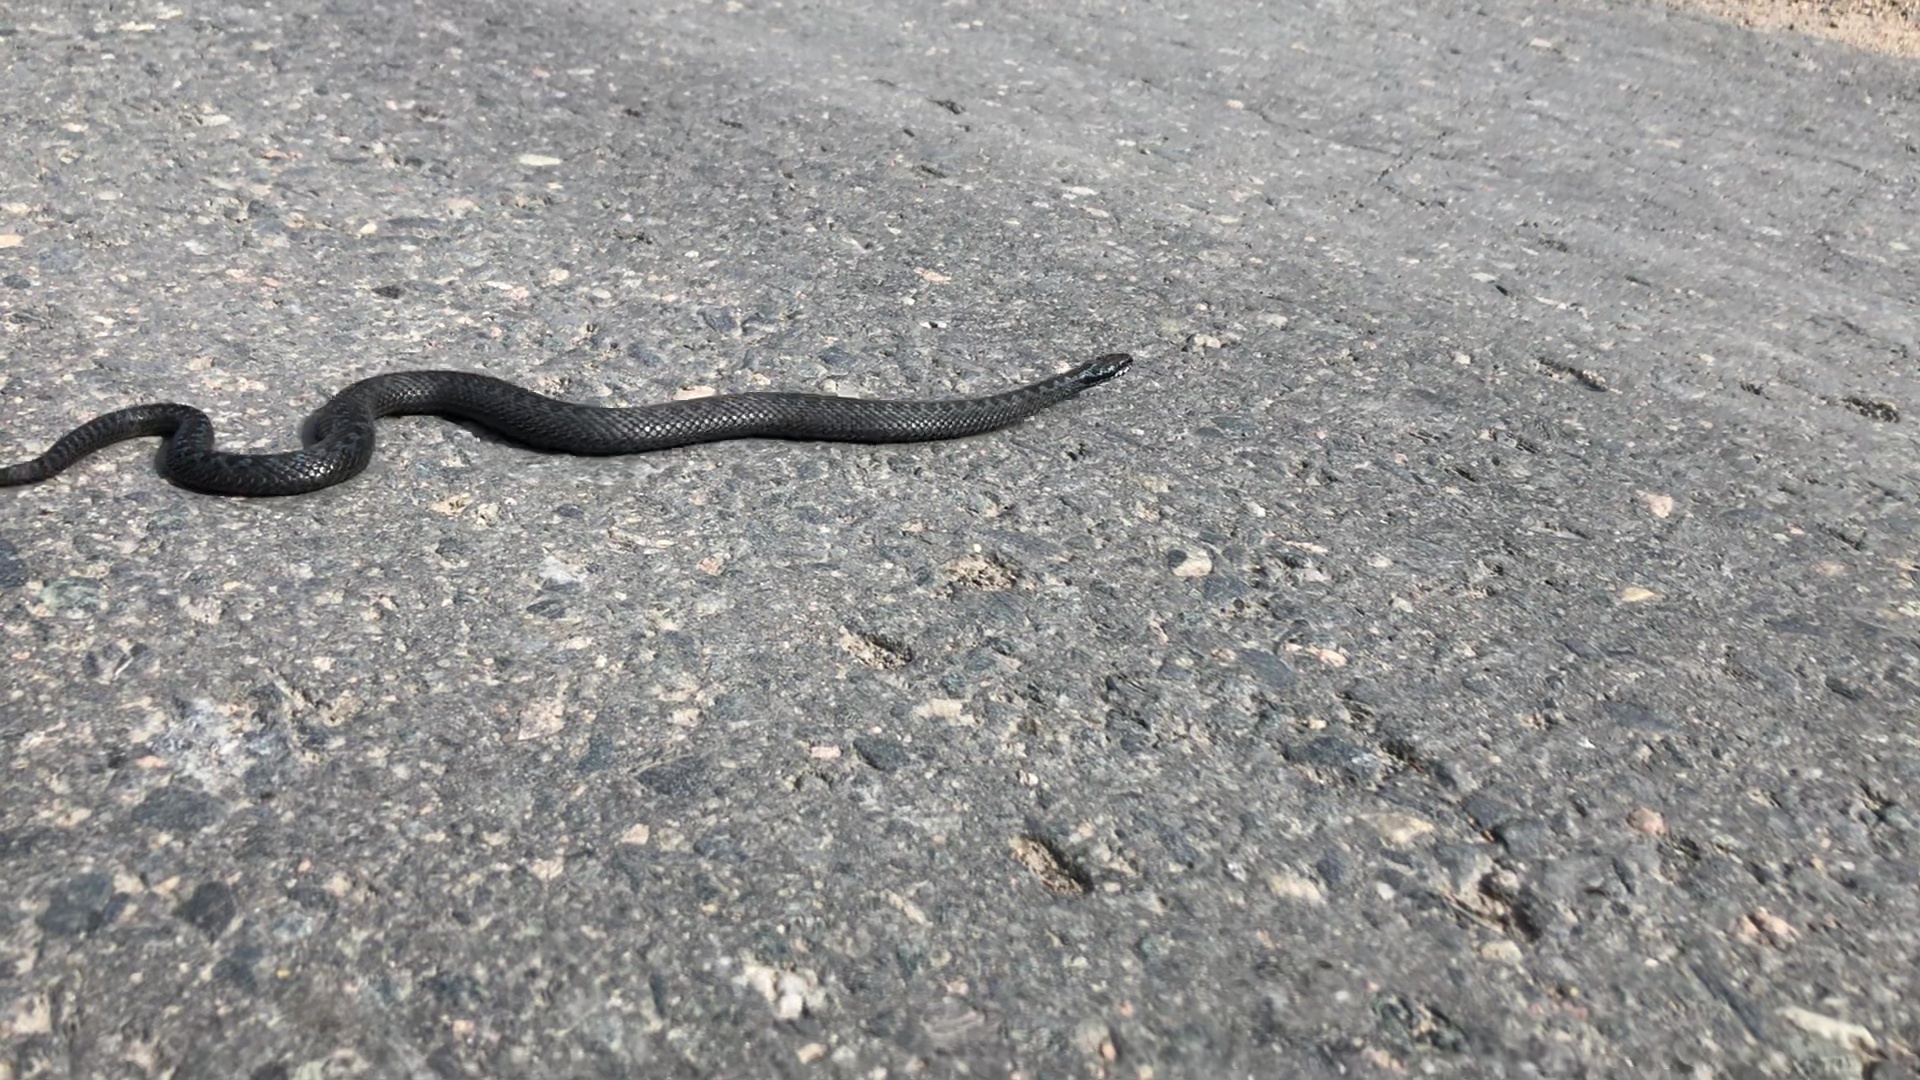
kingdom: Animalia
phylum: Chordata
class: Squamata
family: Viperidae
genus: Vipera
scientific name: Vipera berus
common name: Adder
